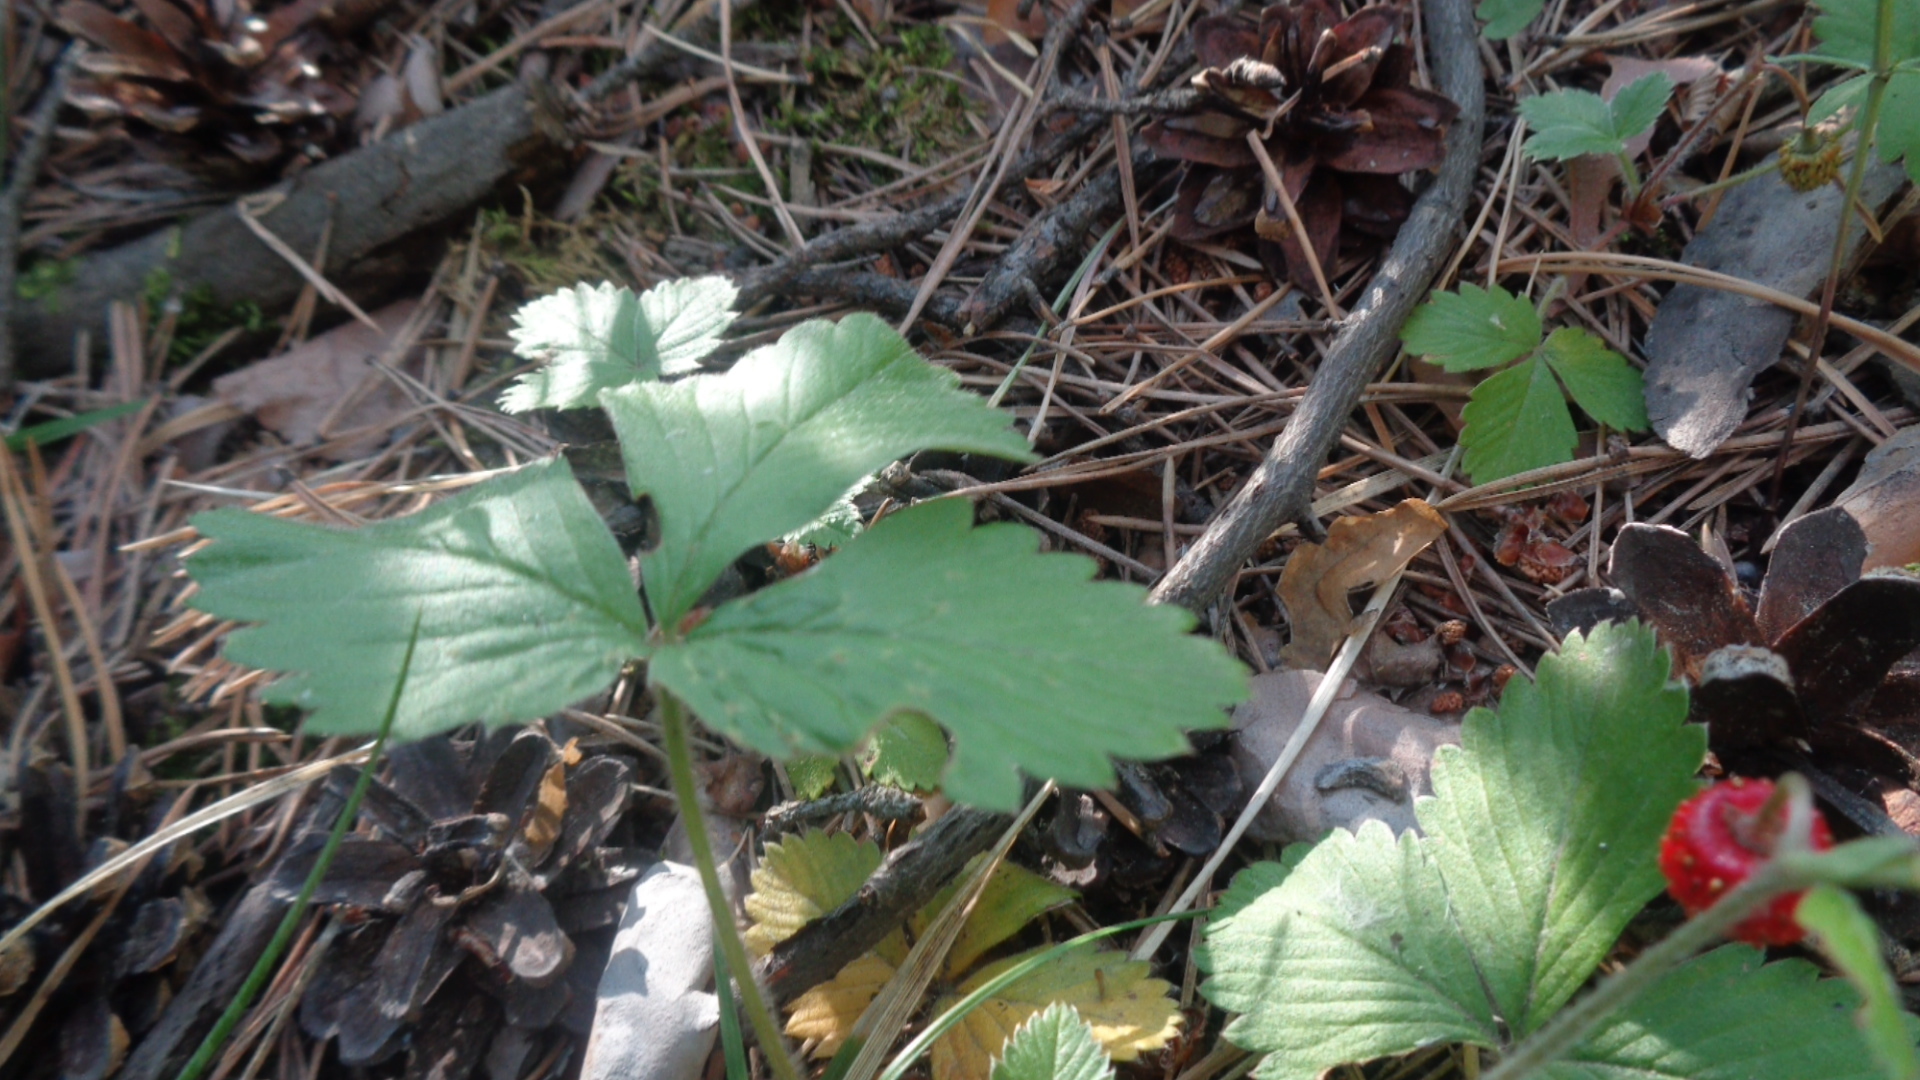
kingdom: Plantae
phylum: Tracheophyta
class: Magnoliopsida
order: Rosales
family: Rosaceae
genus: Fragaria
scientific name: Fragaria vesca
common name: Wild strawberry
